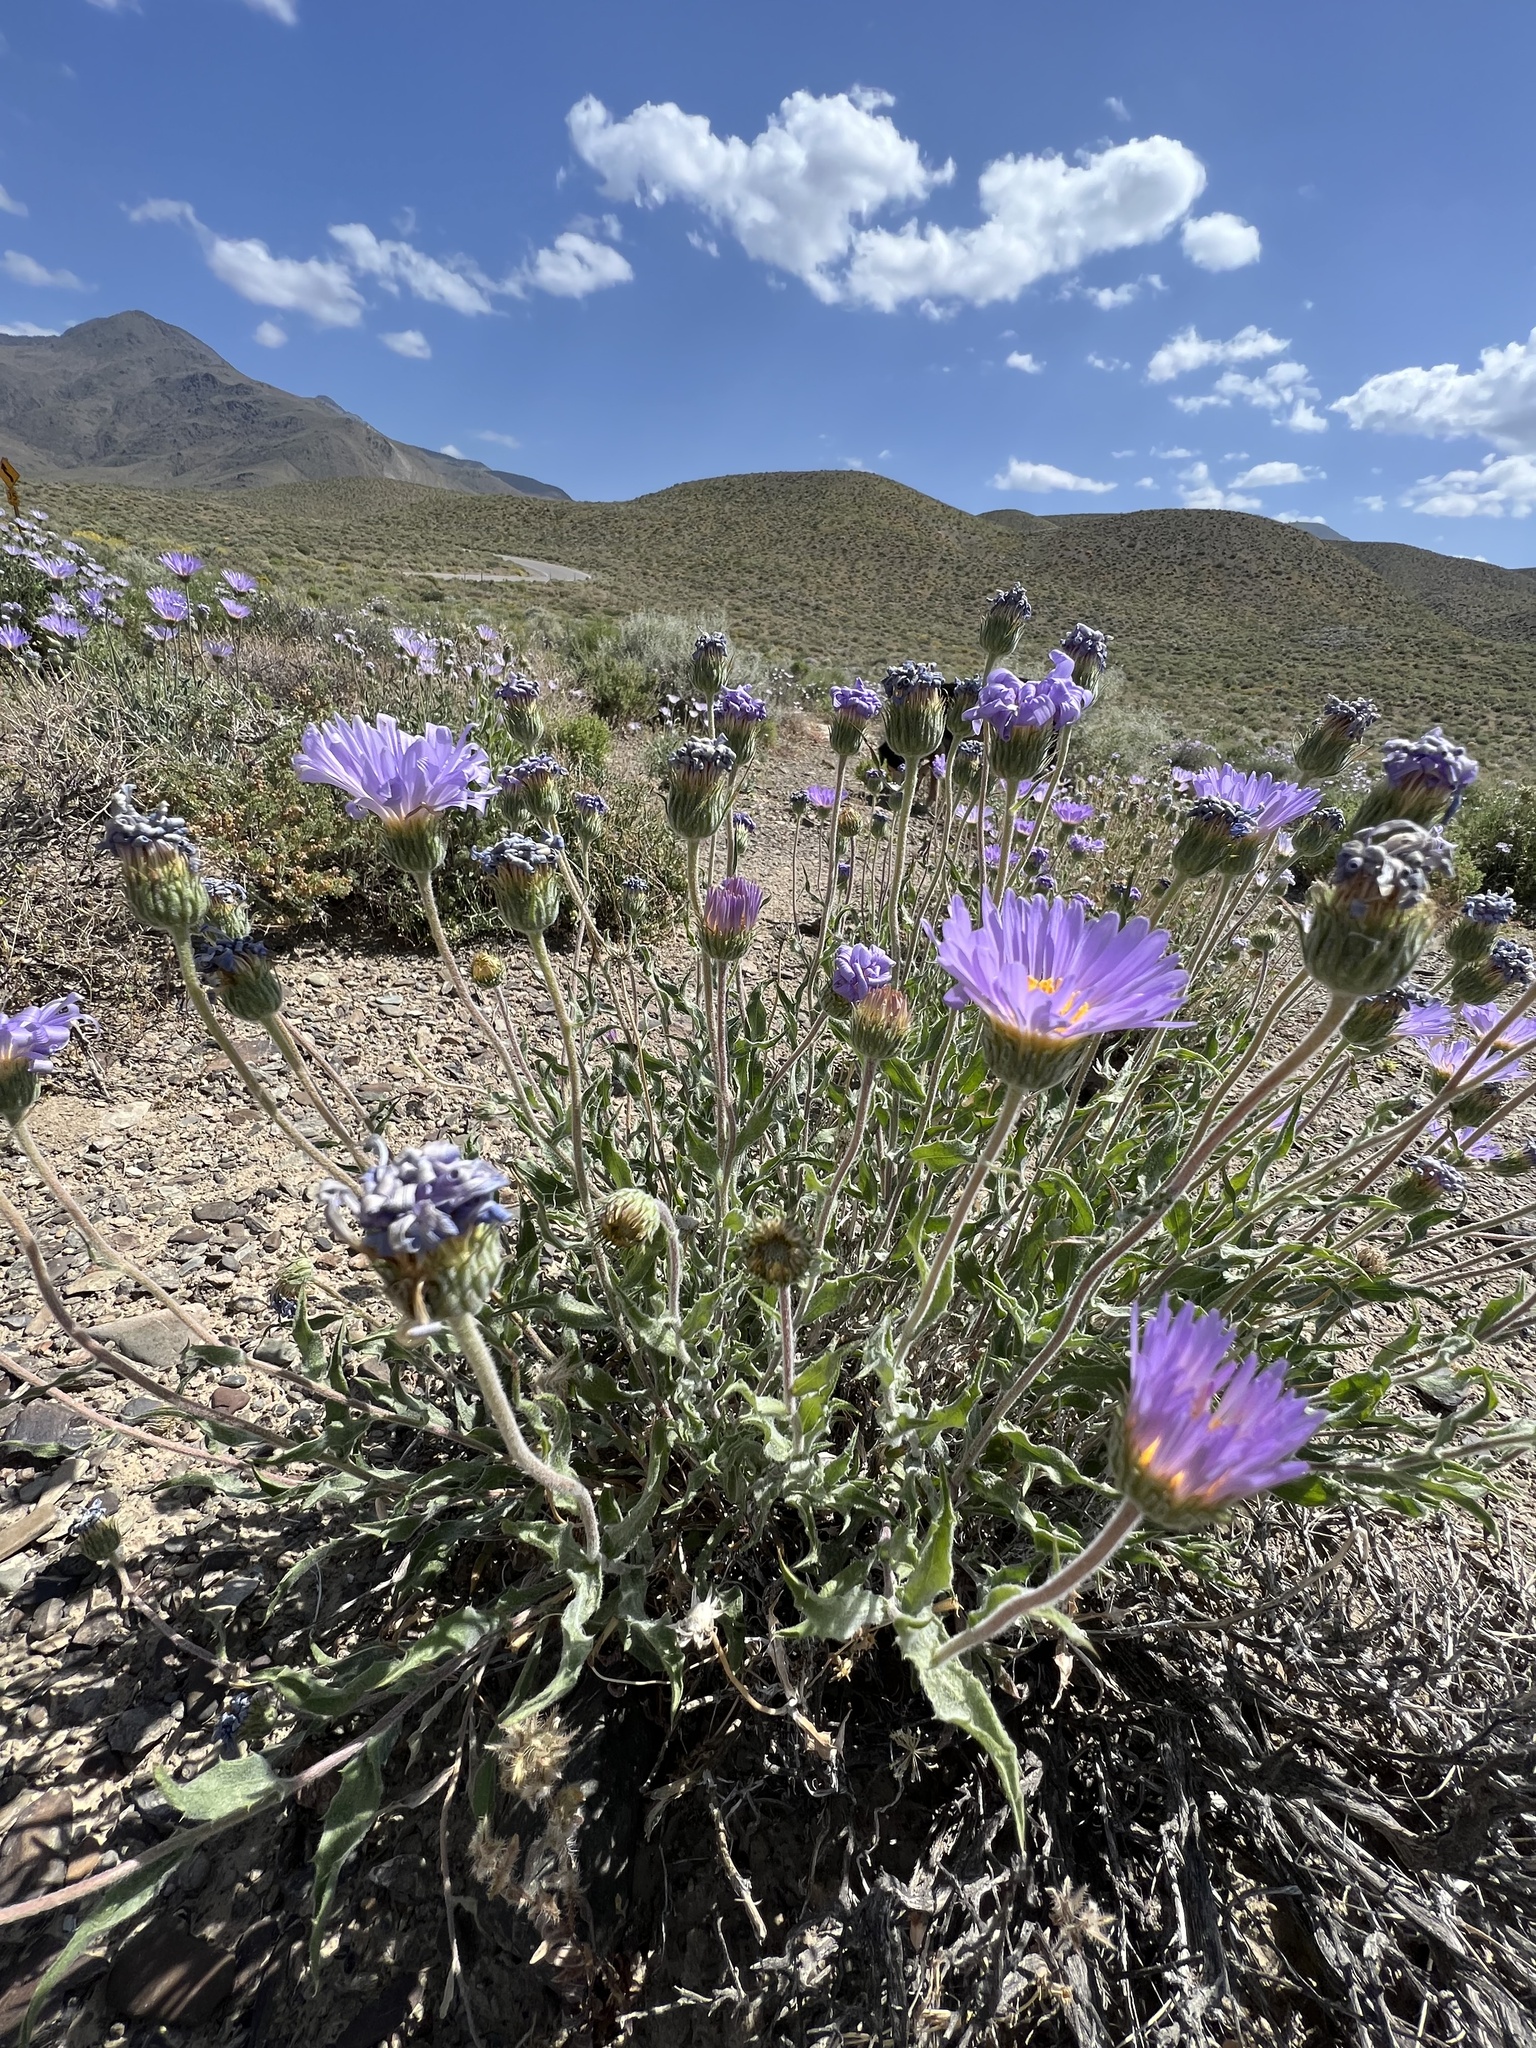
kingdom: Plantae
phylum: Tracheophyta
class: Magnoliopsida
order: Asterales
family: Asteraceae
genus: Xylorhiza
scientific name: Xylorhiza tortifolia
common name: Hurt-leaf woody-aster
